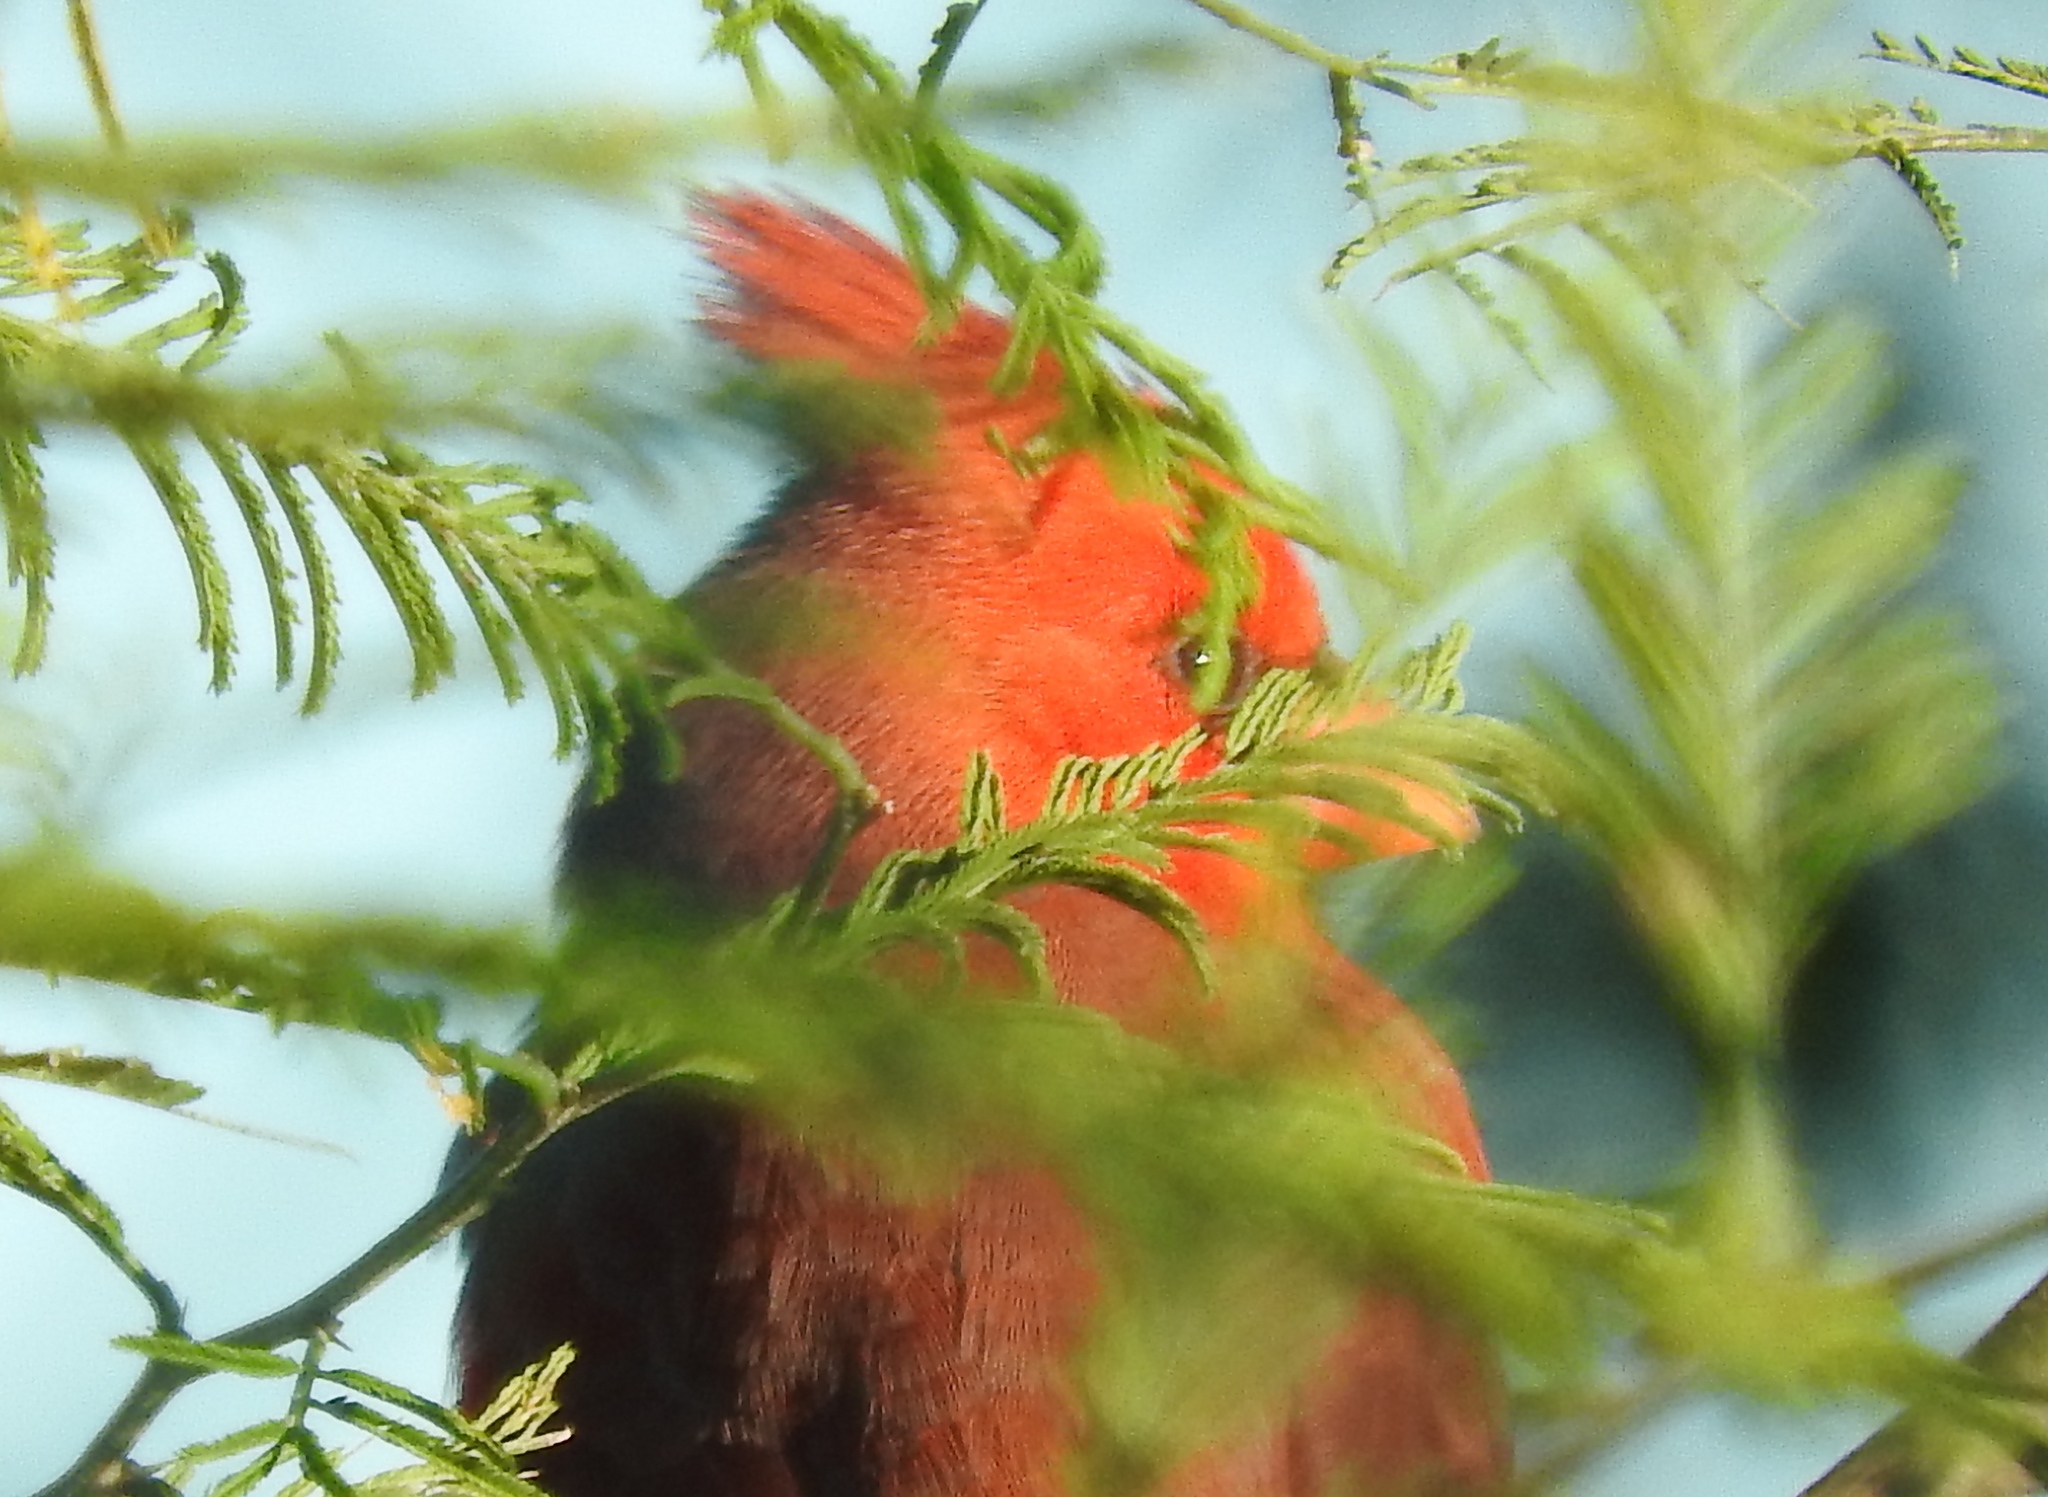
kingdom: Animalia
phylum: Chordata
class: Aves
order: Passeriformes
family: Cardinalidae
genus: Cardinalis
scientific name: Cardinalis cardinalis
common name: Northern cardinal
